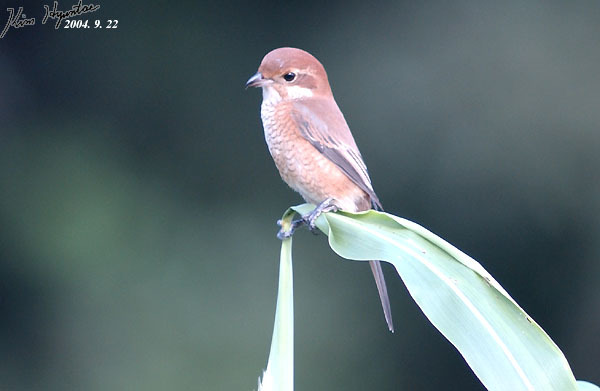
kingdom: Animalia
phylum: Chordata
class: Aves
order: Passeriformes
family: Laniidae
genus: Lanius
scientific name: Lanius bucephalus
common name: Bull-headed shrike
